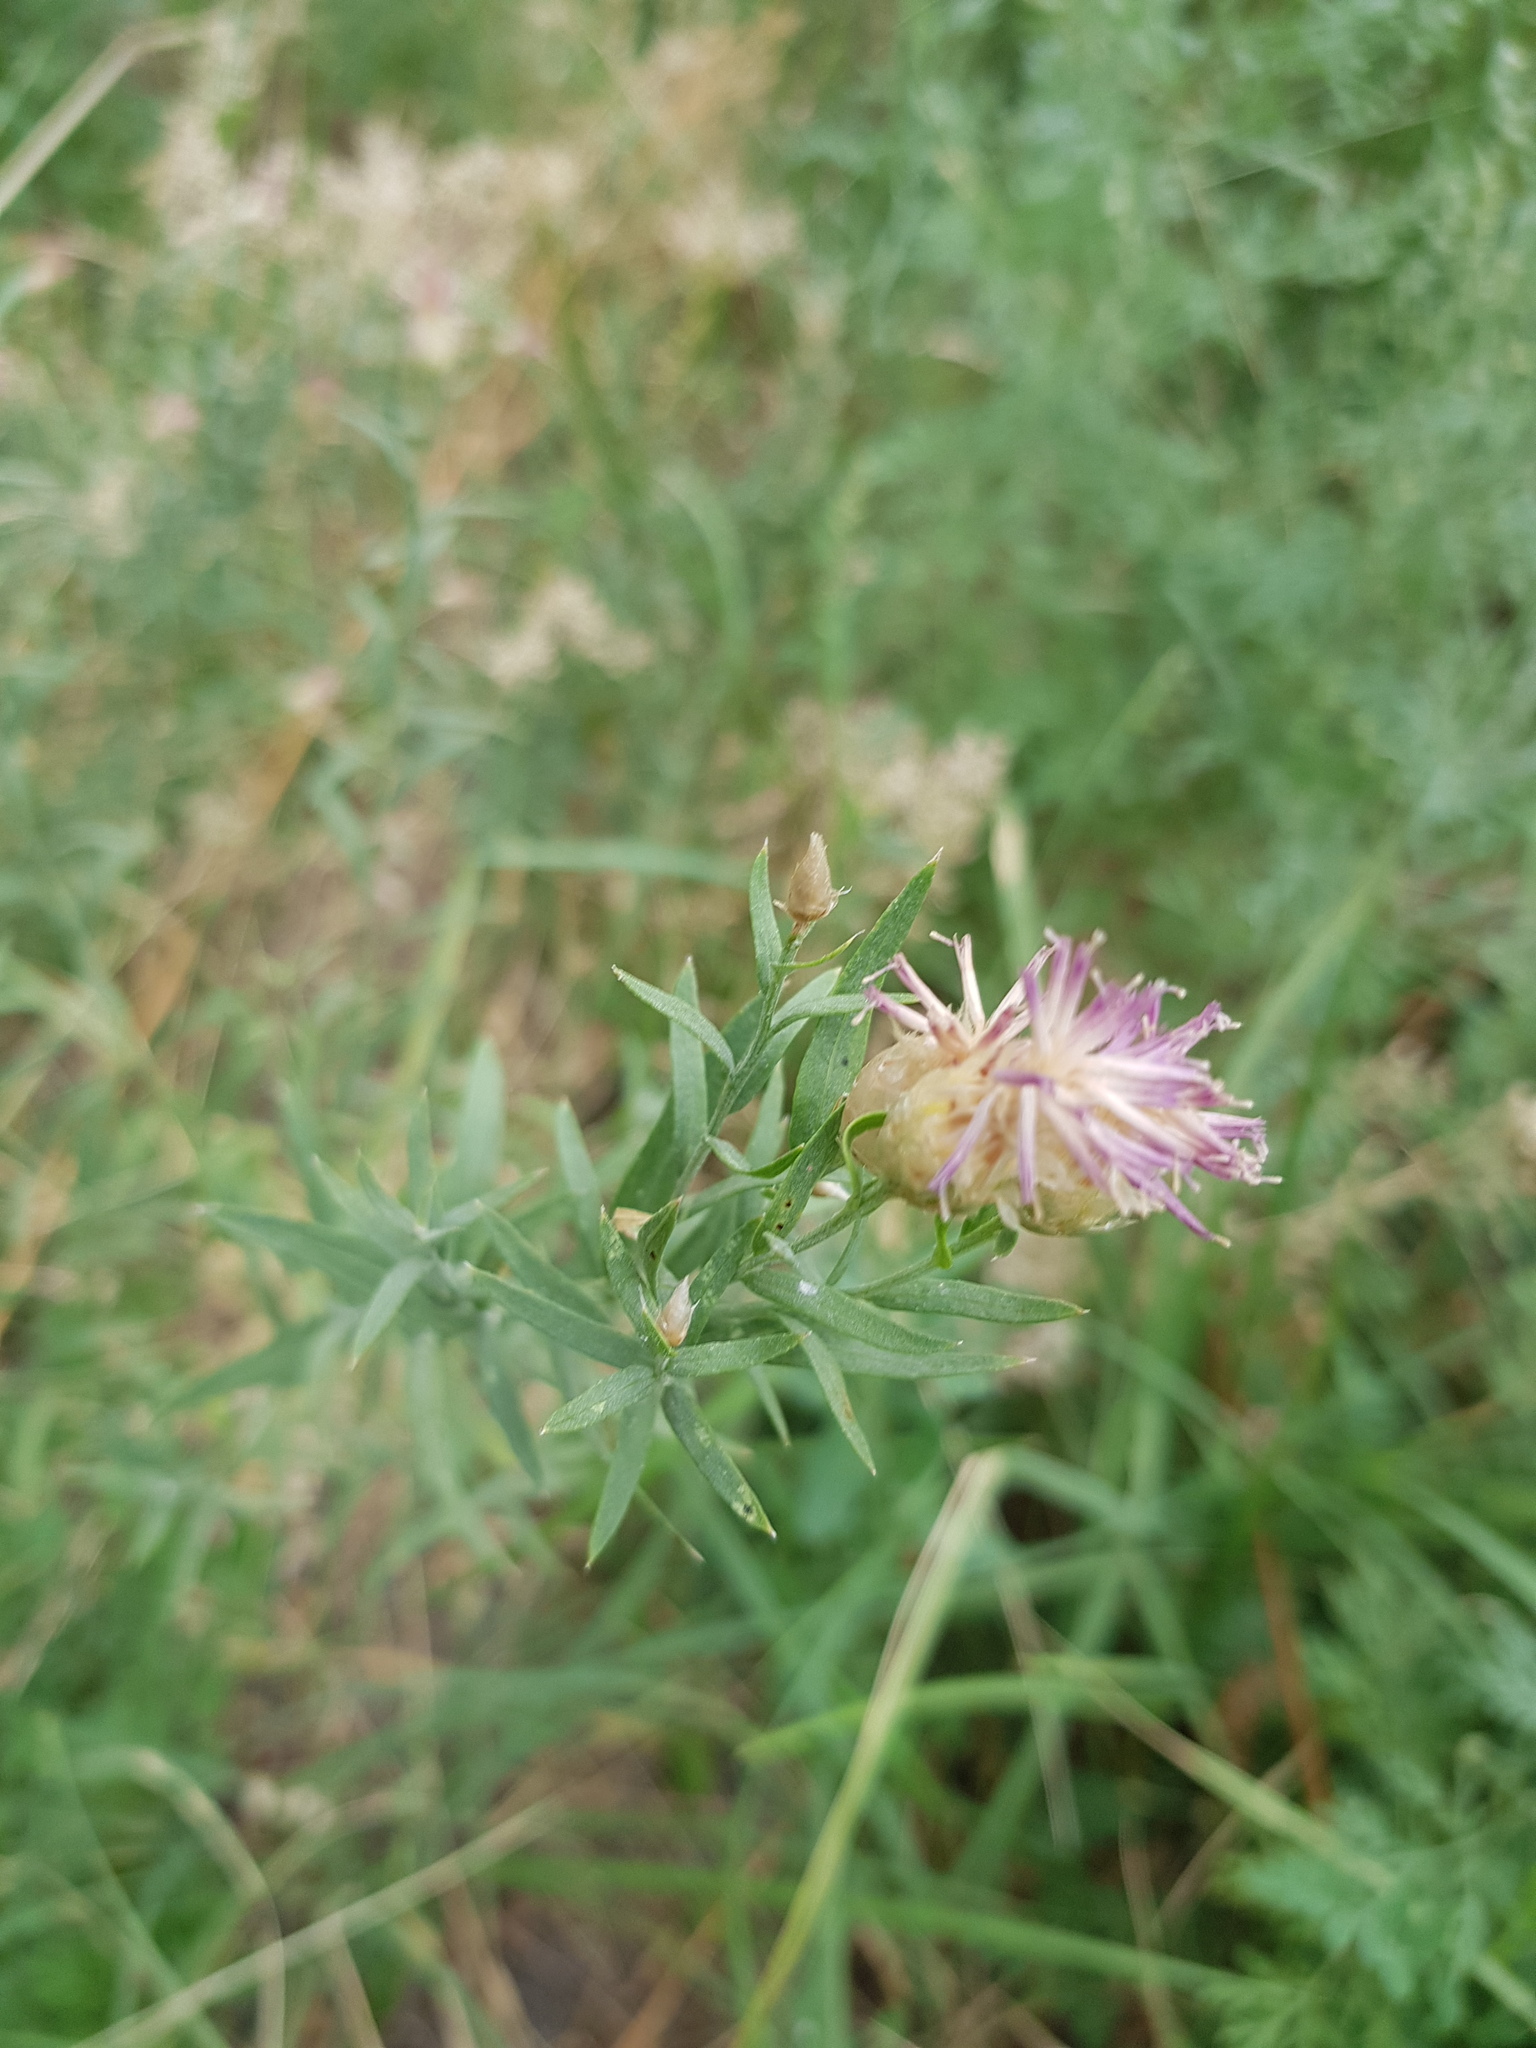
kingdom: Plantae
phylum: Tracheophyta
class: Magnoliopsida
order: Asterales
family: Asteraceae
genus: Leuzea
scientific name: Leuzea repens
